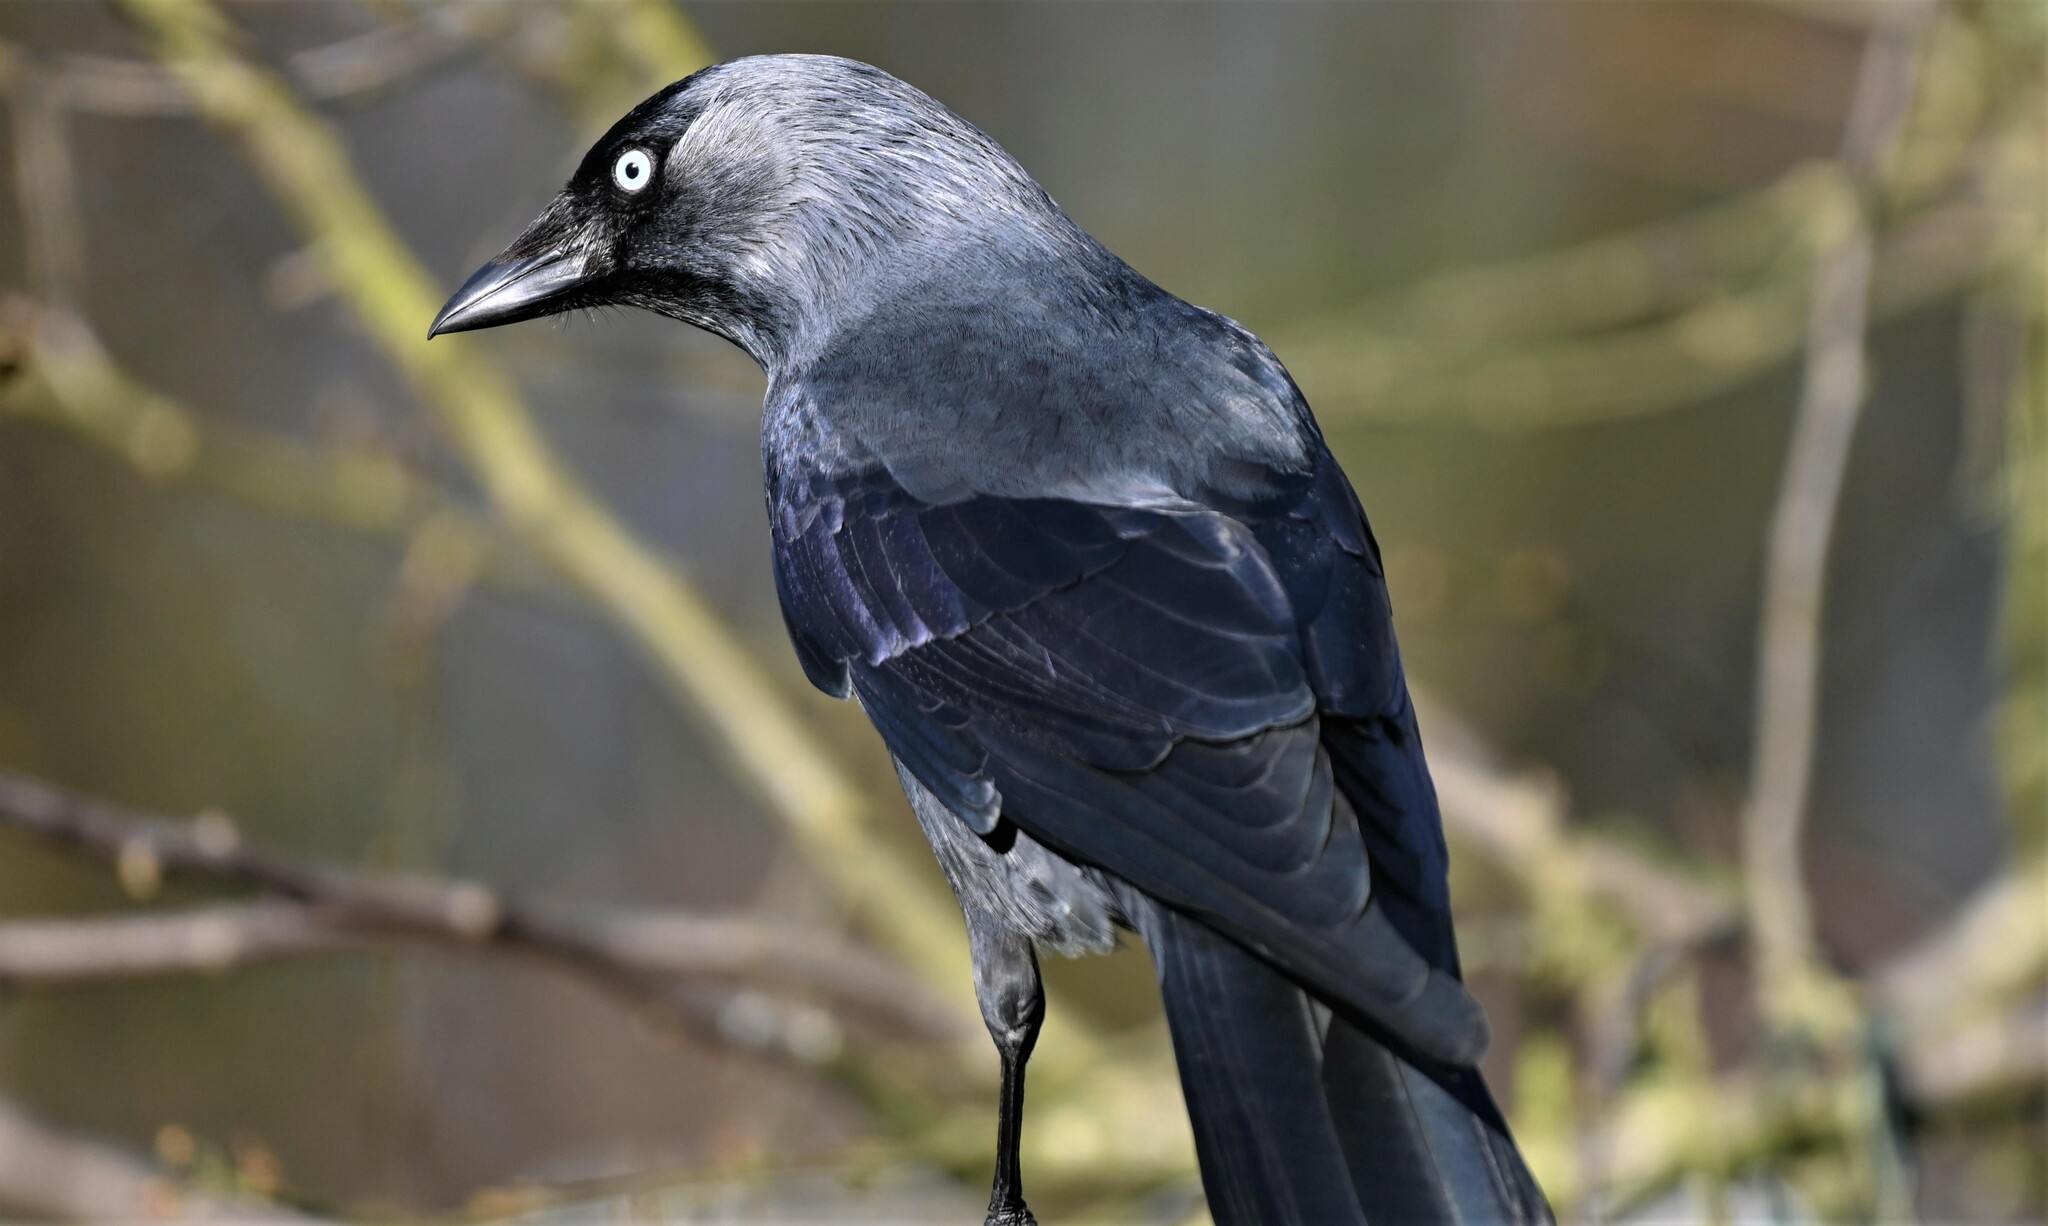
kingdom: Animalia
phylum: Chordata
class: Aves
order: Passeriformes
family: Corvidae
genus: Coloeus
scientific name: Coloeus monedula
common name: Western jackdaw
